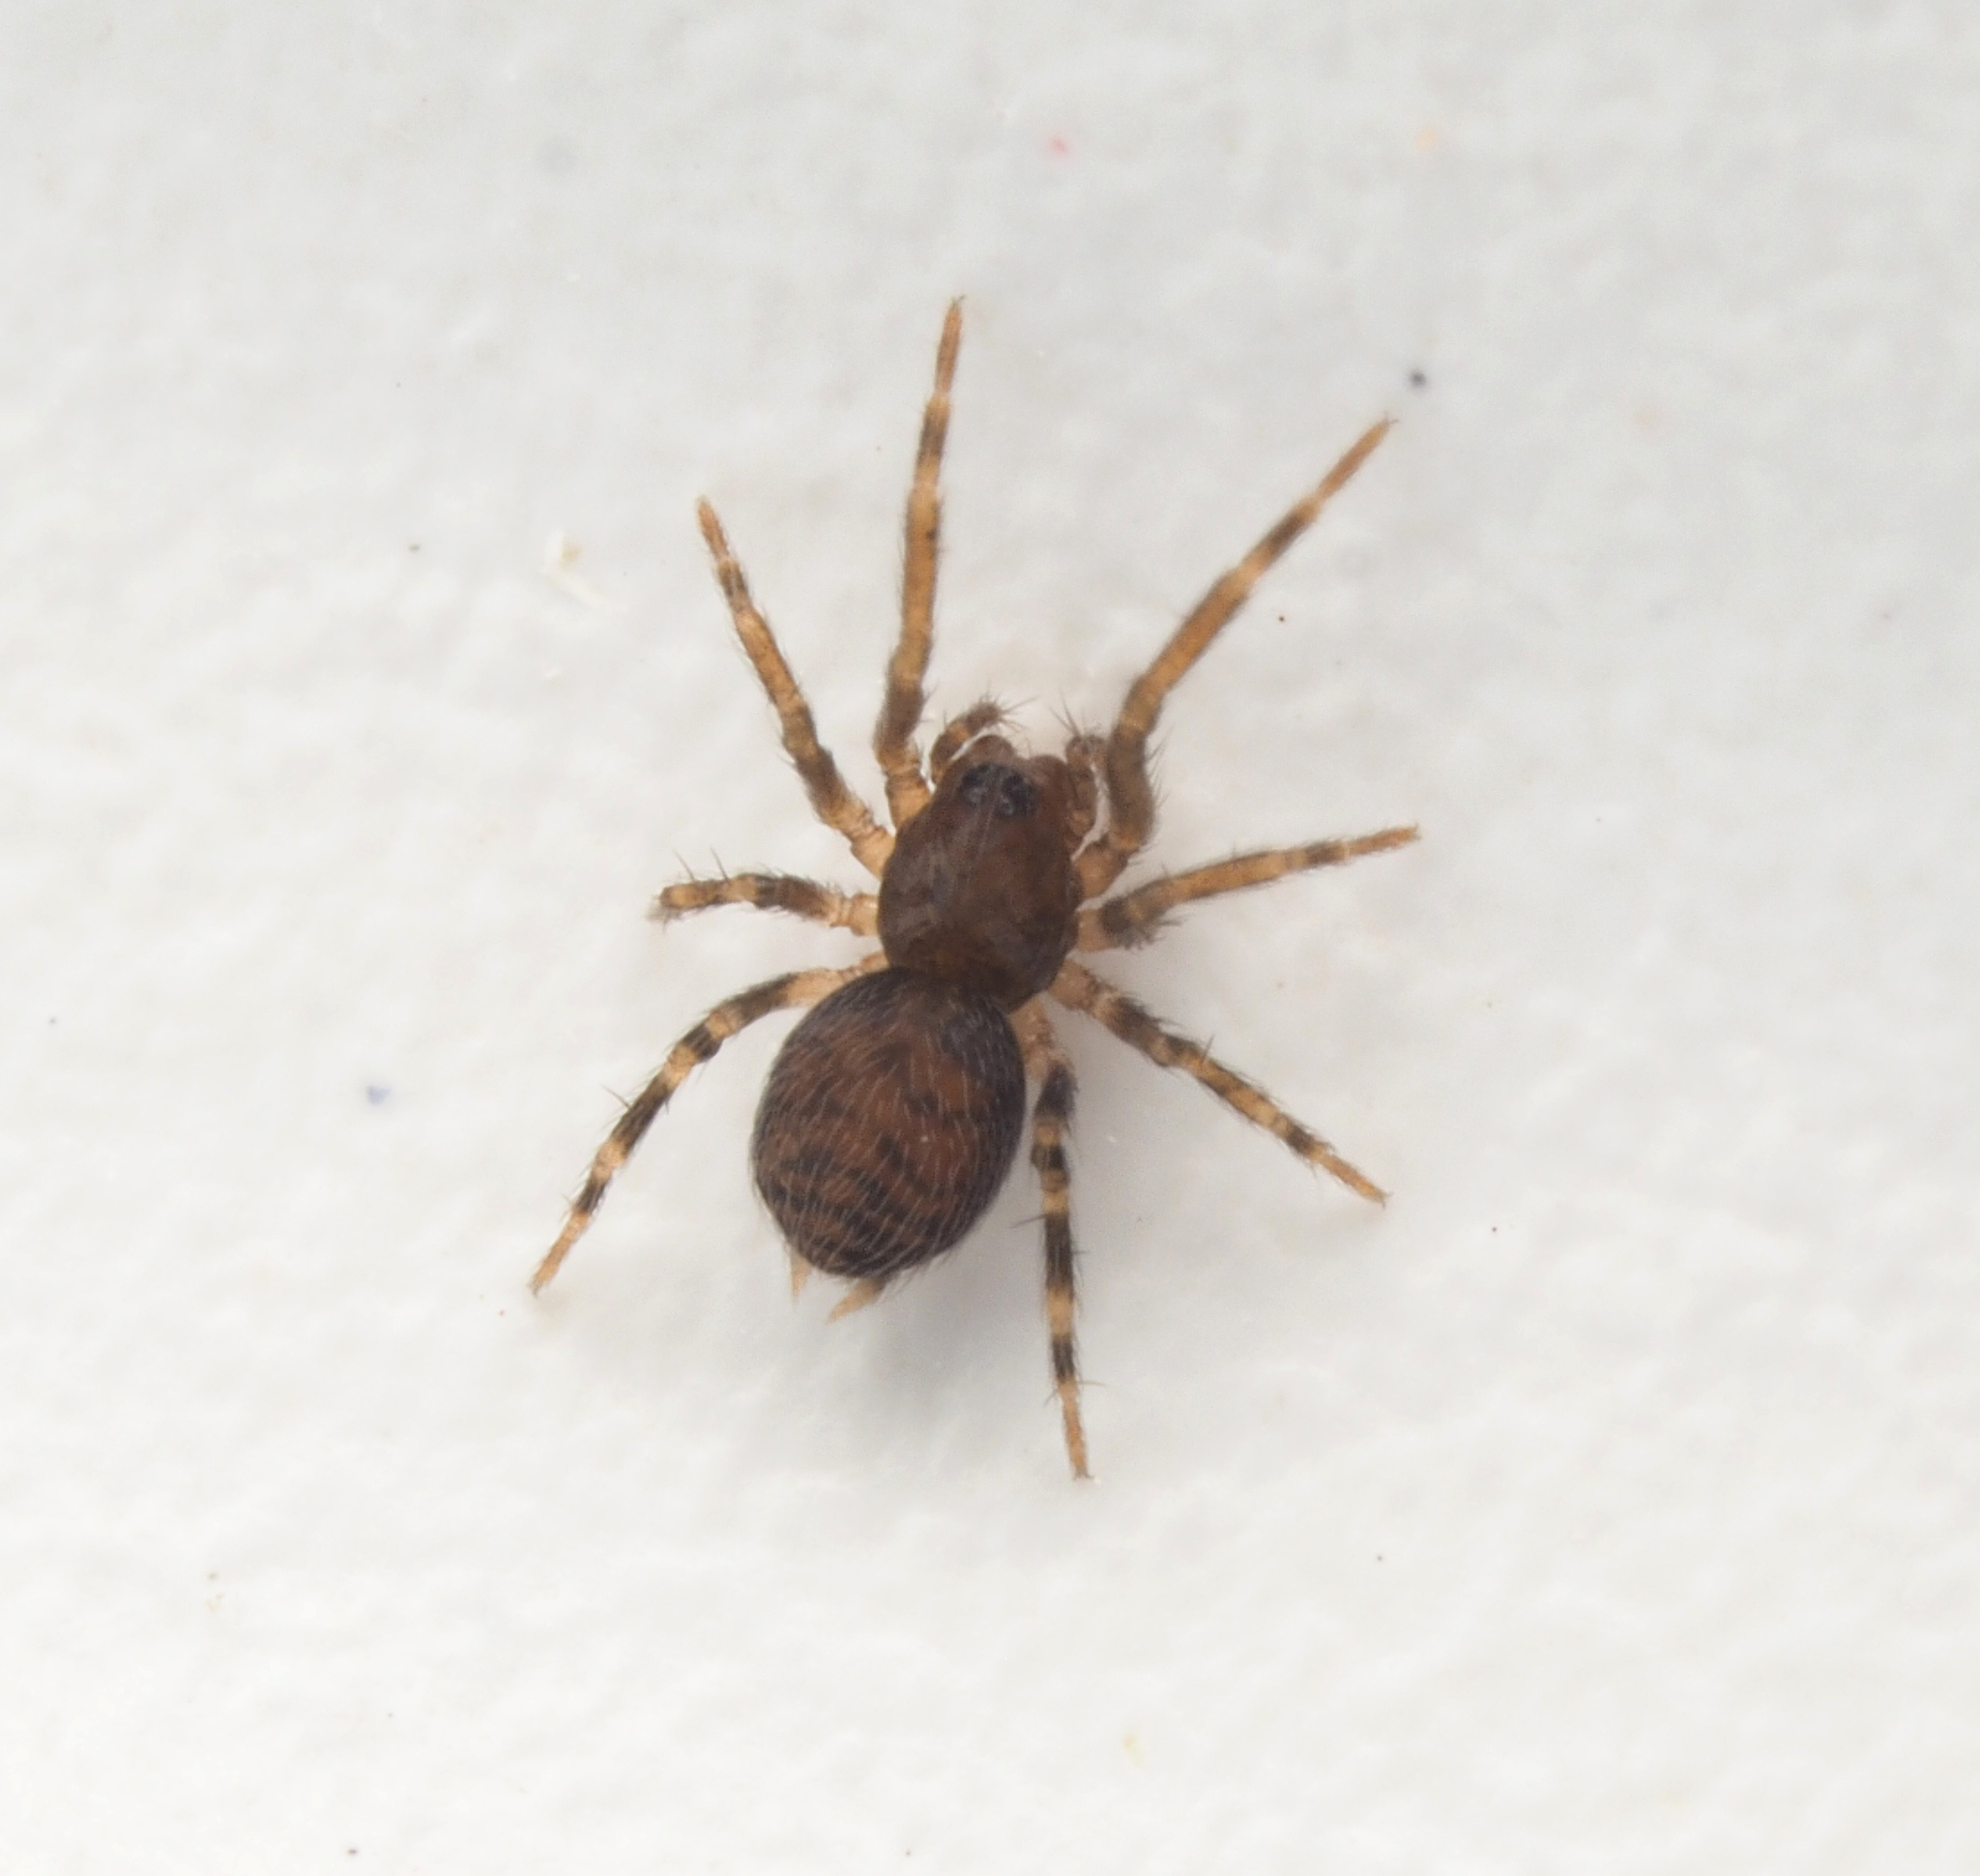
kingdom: Animalia
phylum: Arthropoda
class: Arachnida
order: Araneae
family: Hahniidae
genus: Alistra
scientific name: Alistra
